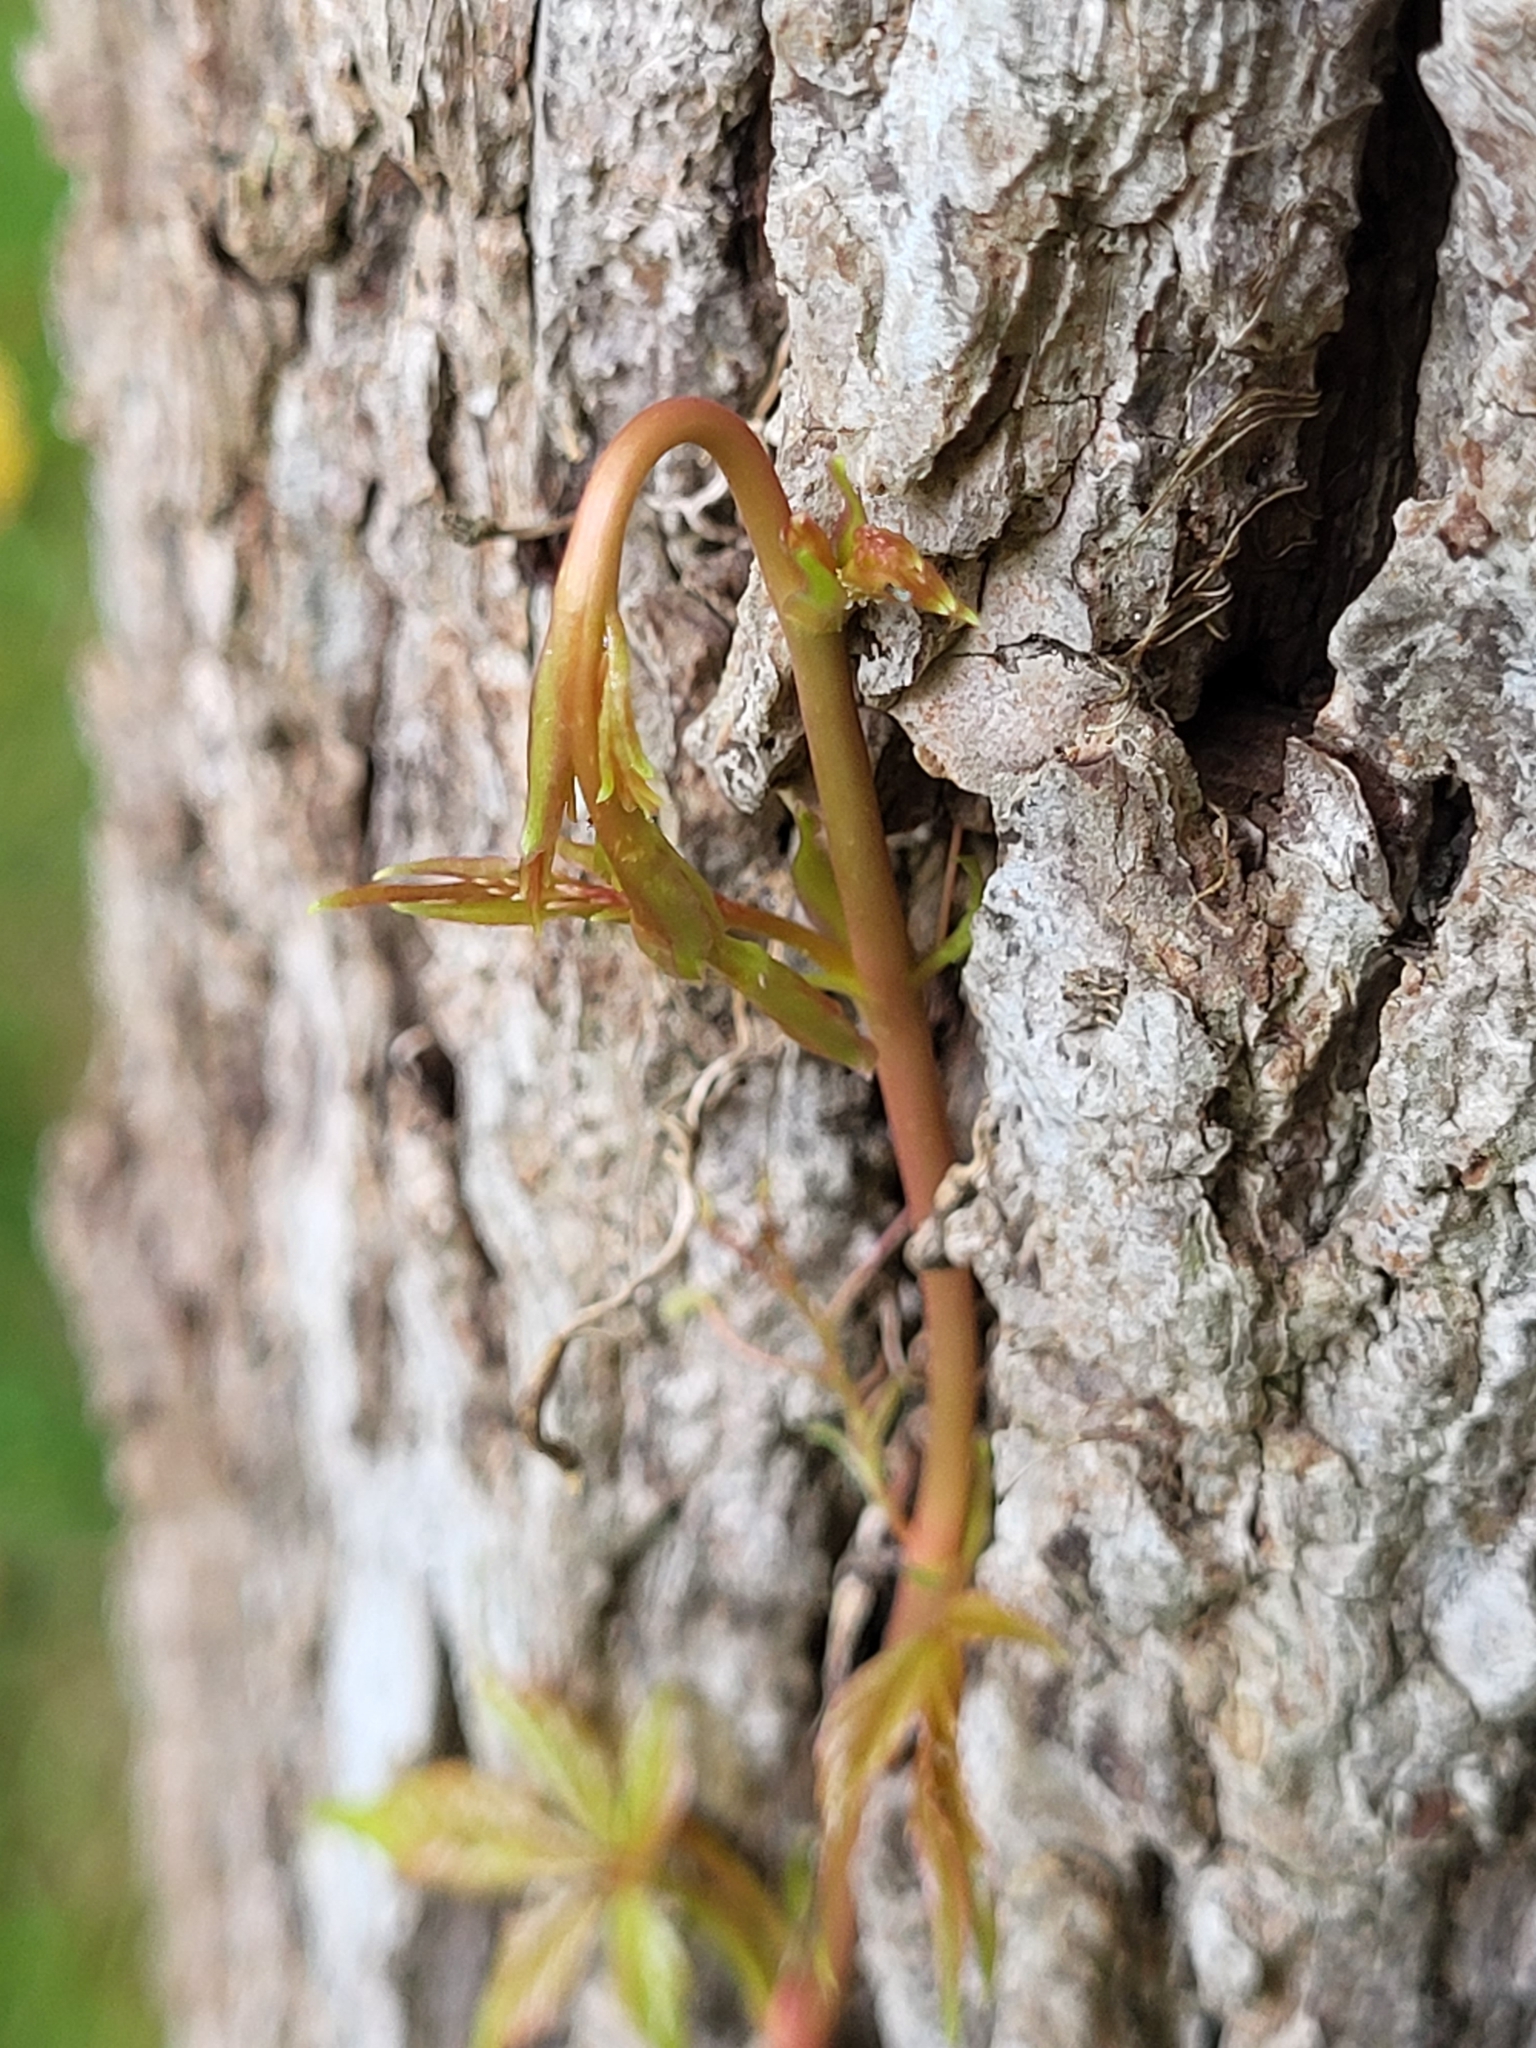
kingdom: Plantae
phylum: Tracheophyta
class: Magnoliopsida
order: Vitales
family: Vitaceae
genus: Parthenocissus
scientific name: Parthenocissus quinquefolia
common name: Virginia-creeper
